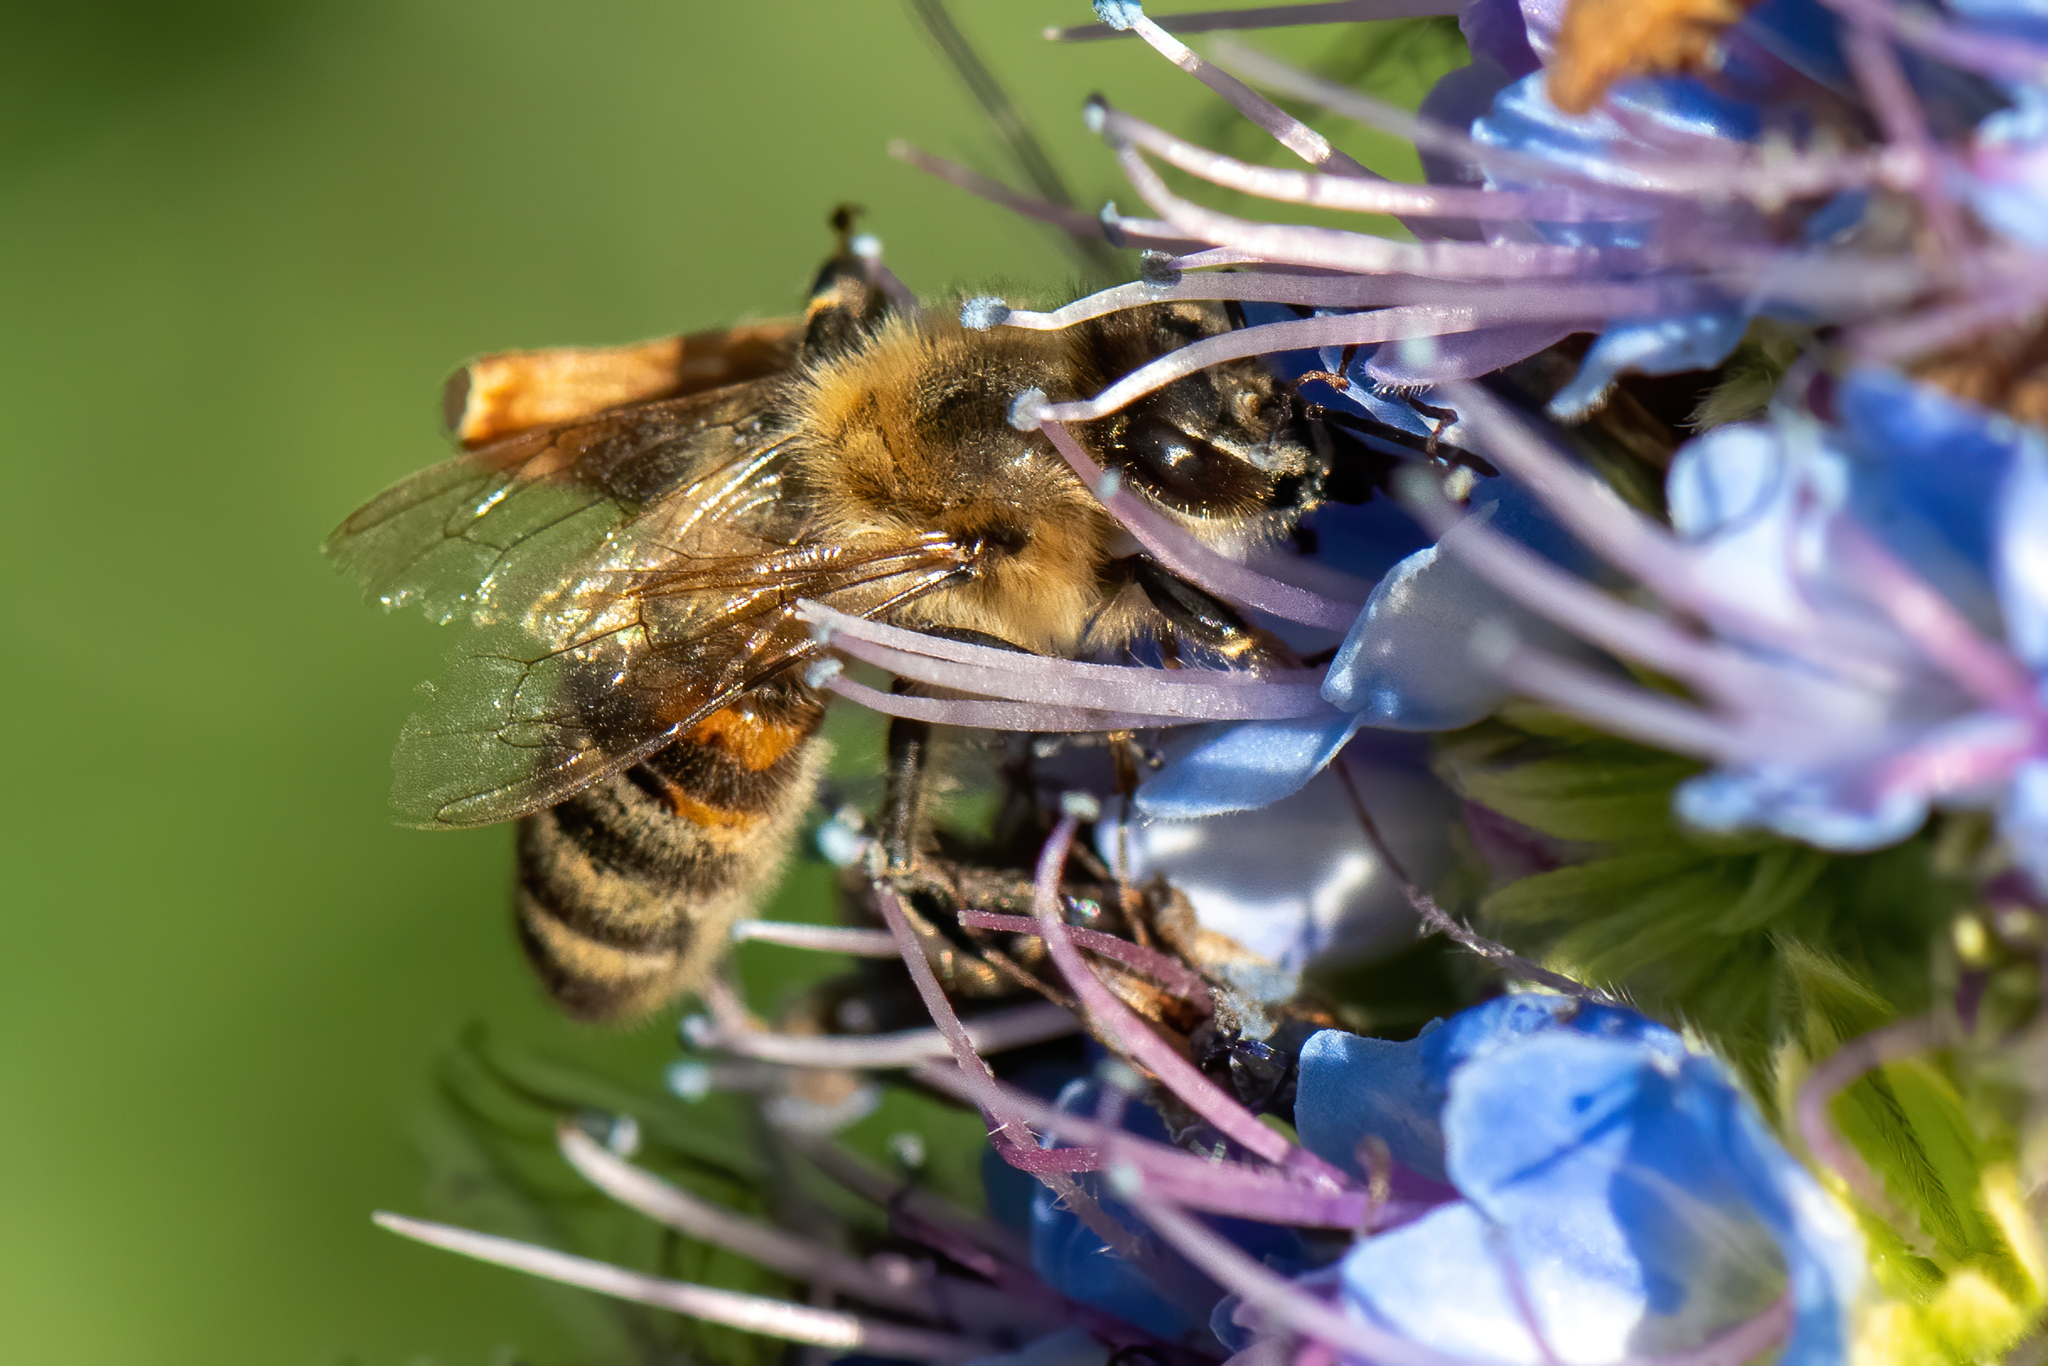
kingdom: Animalia
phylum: Arthropoda
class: Insecta
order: Hymenoptera
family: Apidae
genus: Apis
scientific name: Apis mellifera
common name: Honey bee
